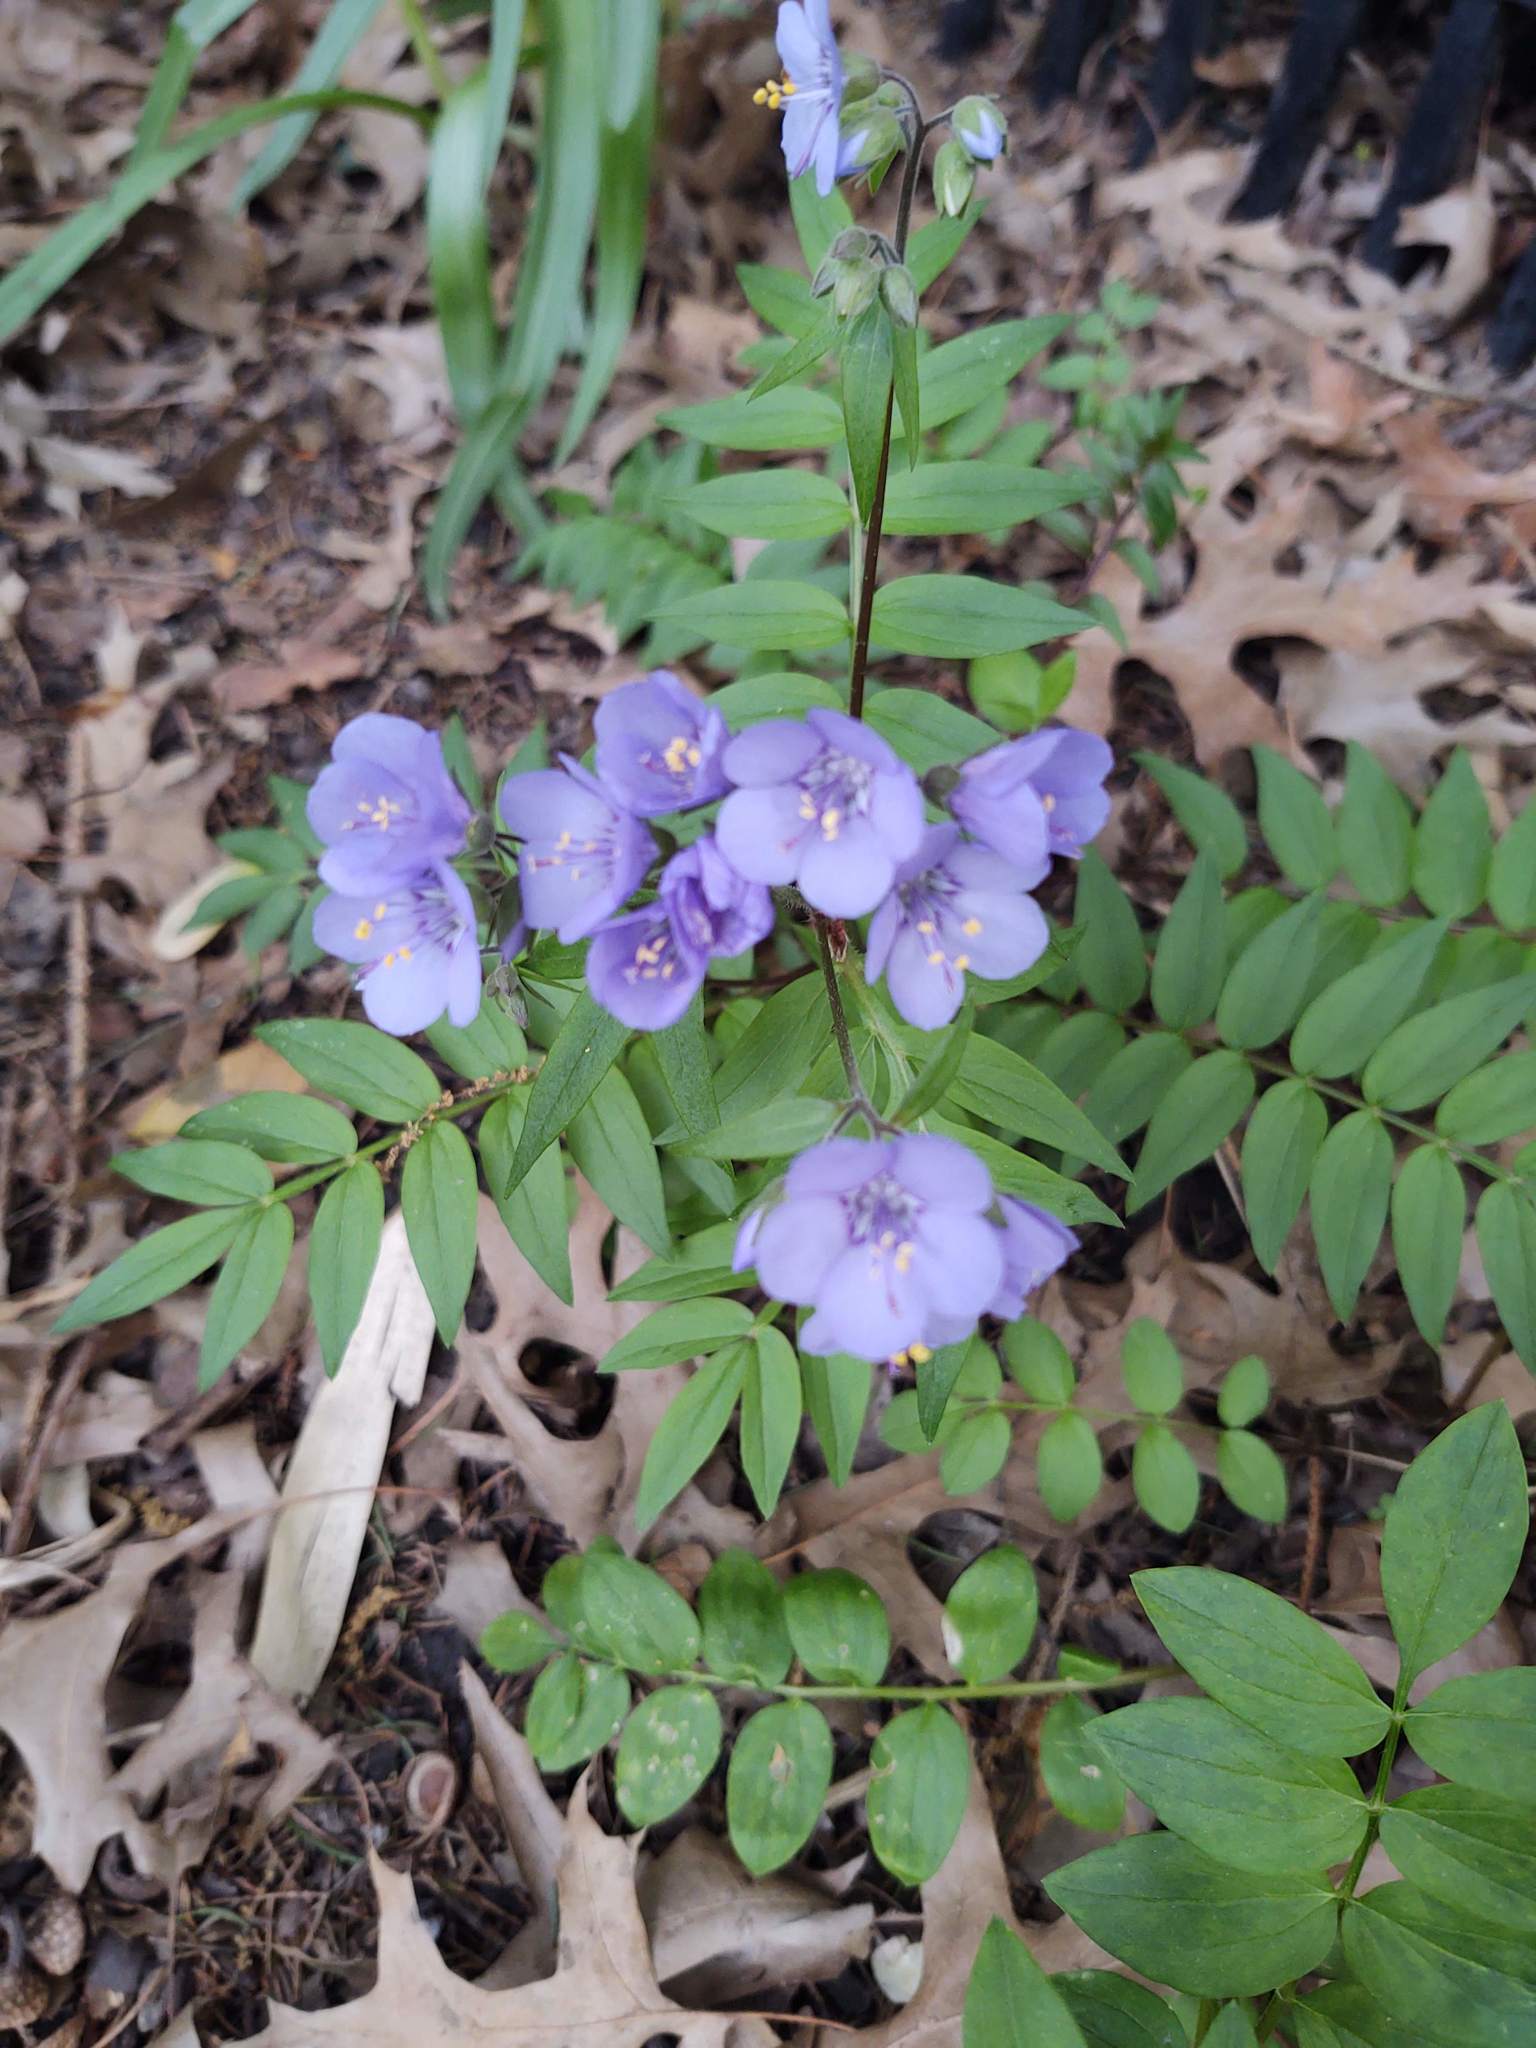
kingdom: Plantae
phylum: Tracheophyta
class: Magnoliopsida
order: Ericales
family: Polemoniaceae
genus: Polemonium
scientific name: Polemonium reptans
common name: Creeping jacob's-ladder
